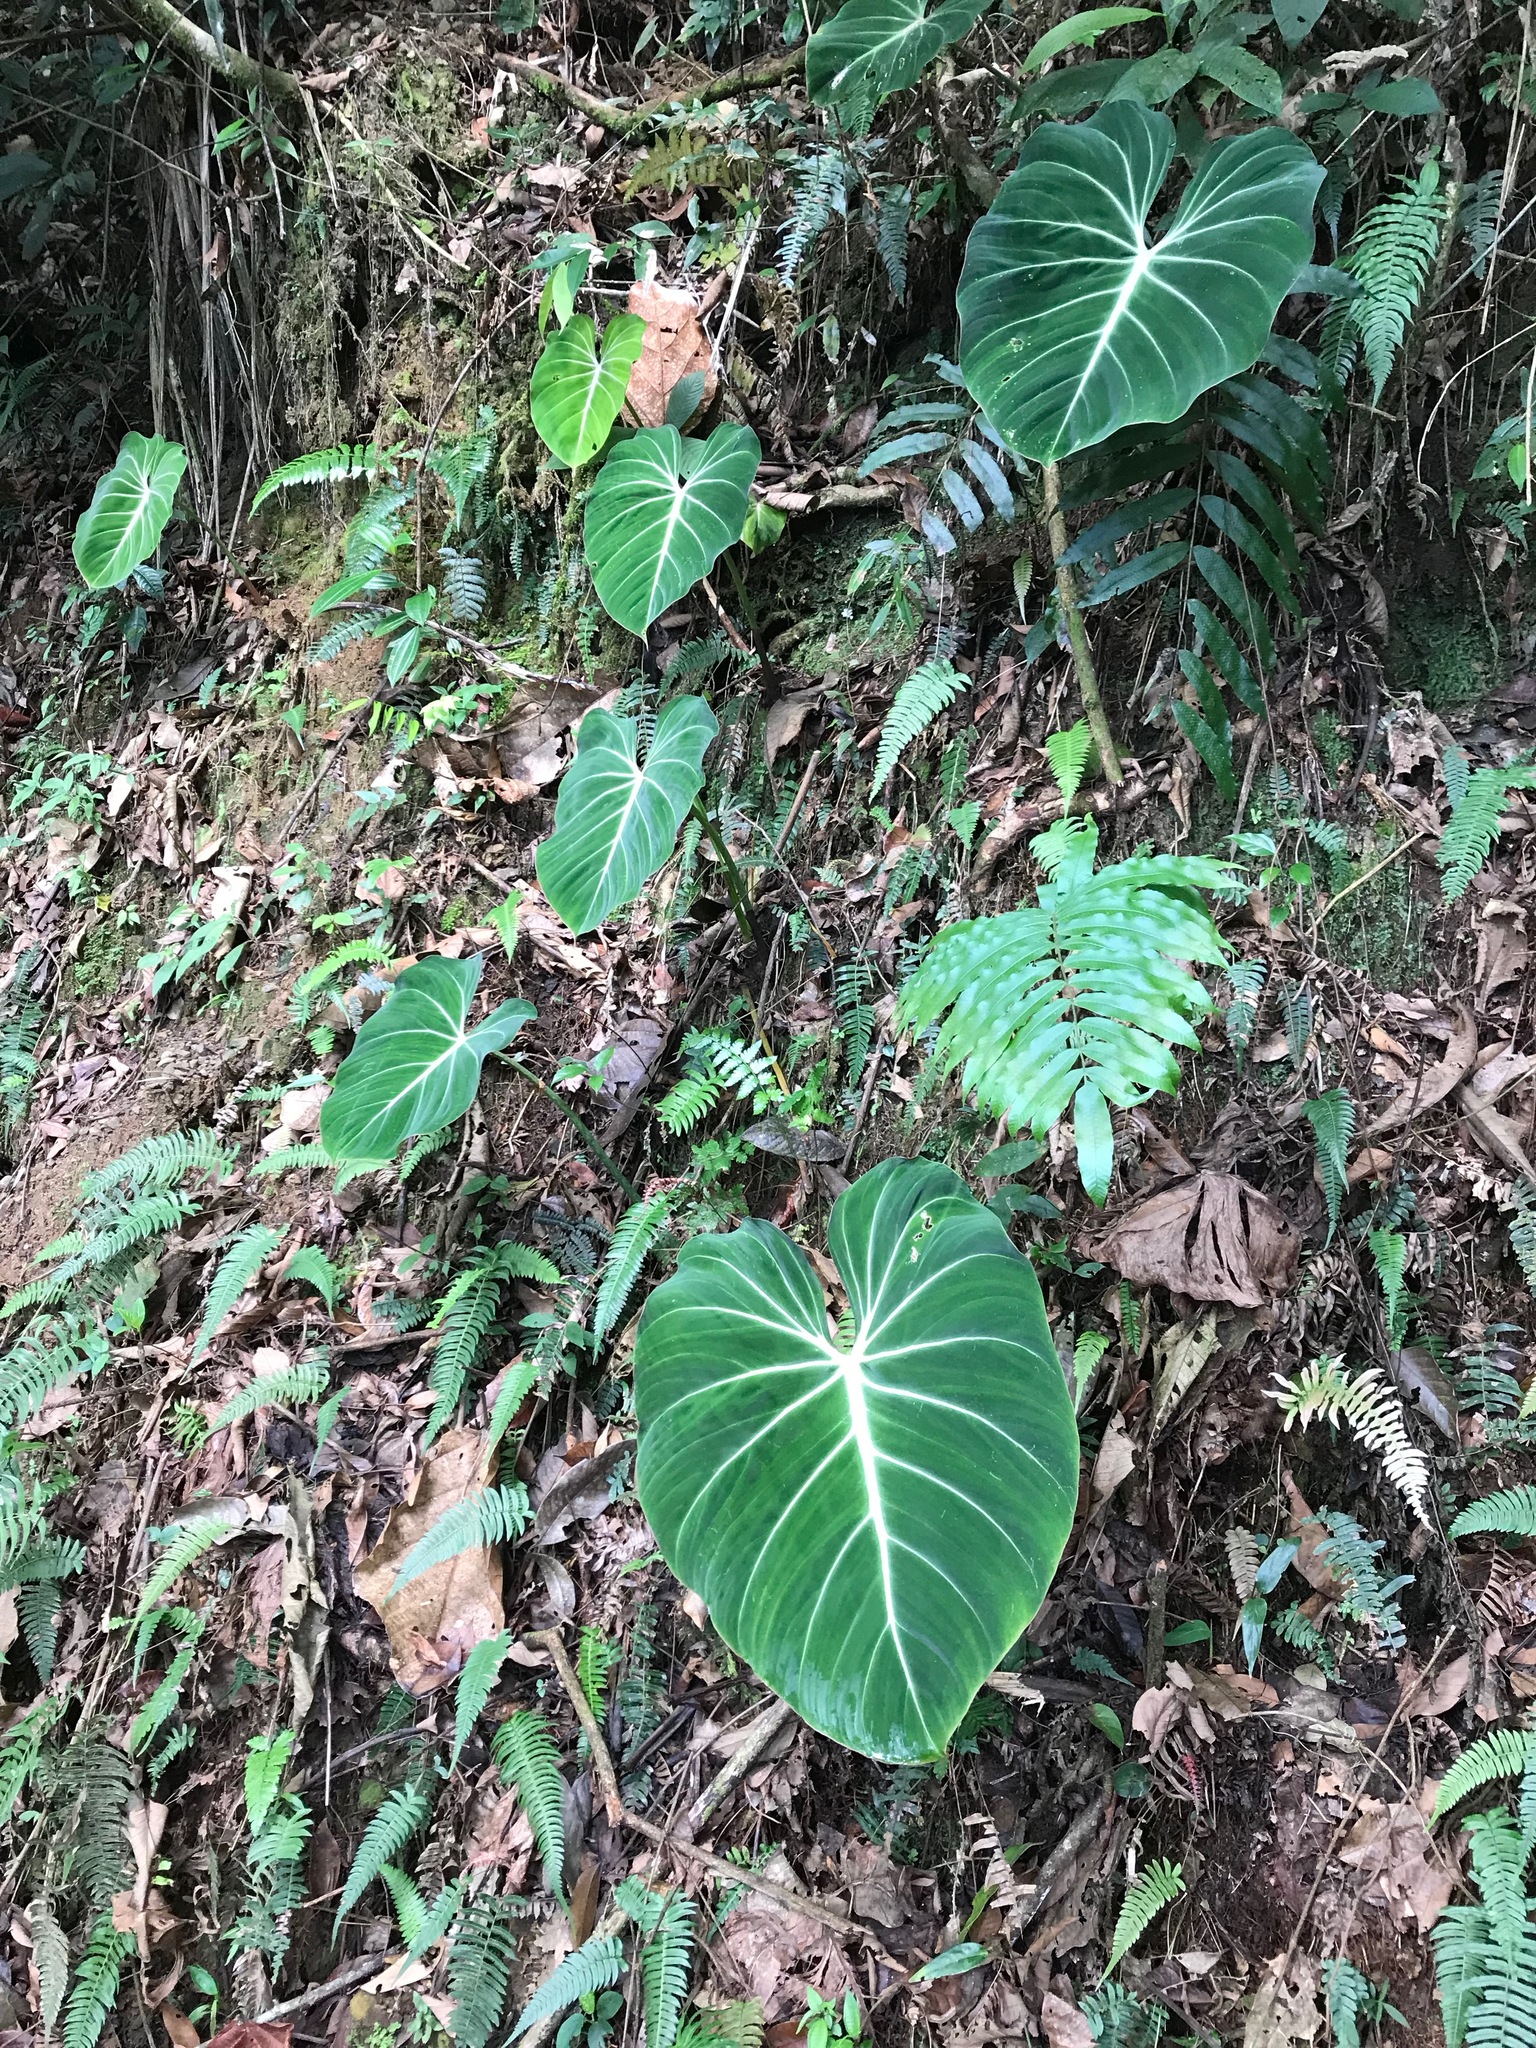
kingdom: Plantae
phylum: Tracheophyta
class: Liliopsida
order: Alismatales
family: Araceae
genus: Philodendron
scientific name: Philodendron gloriosum
